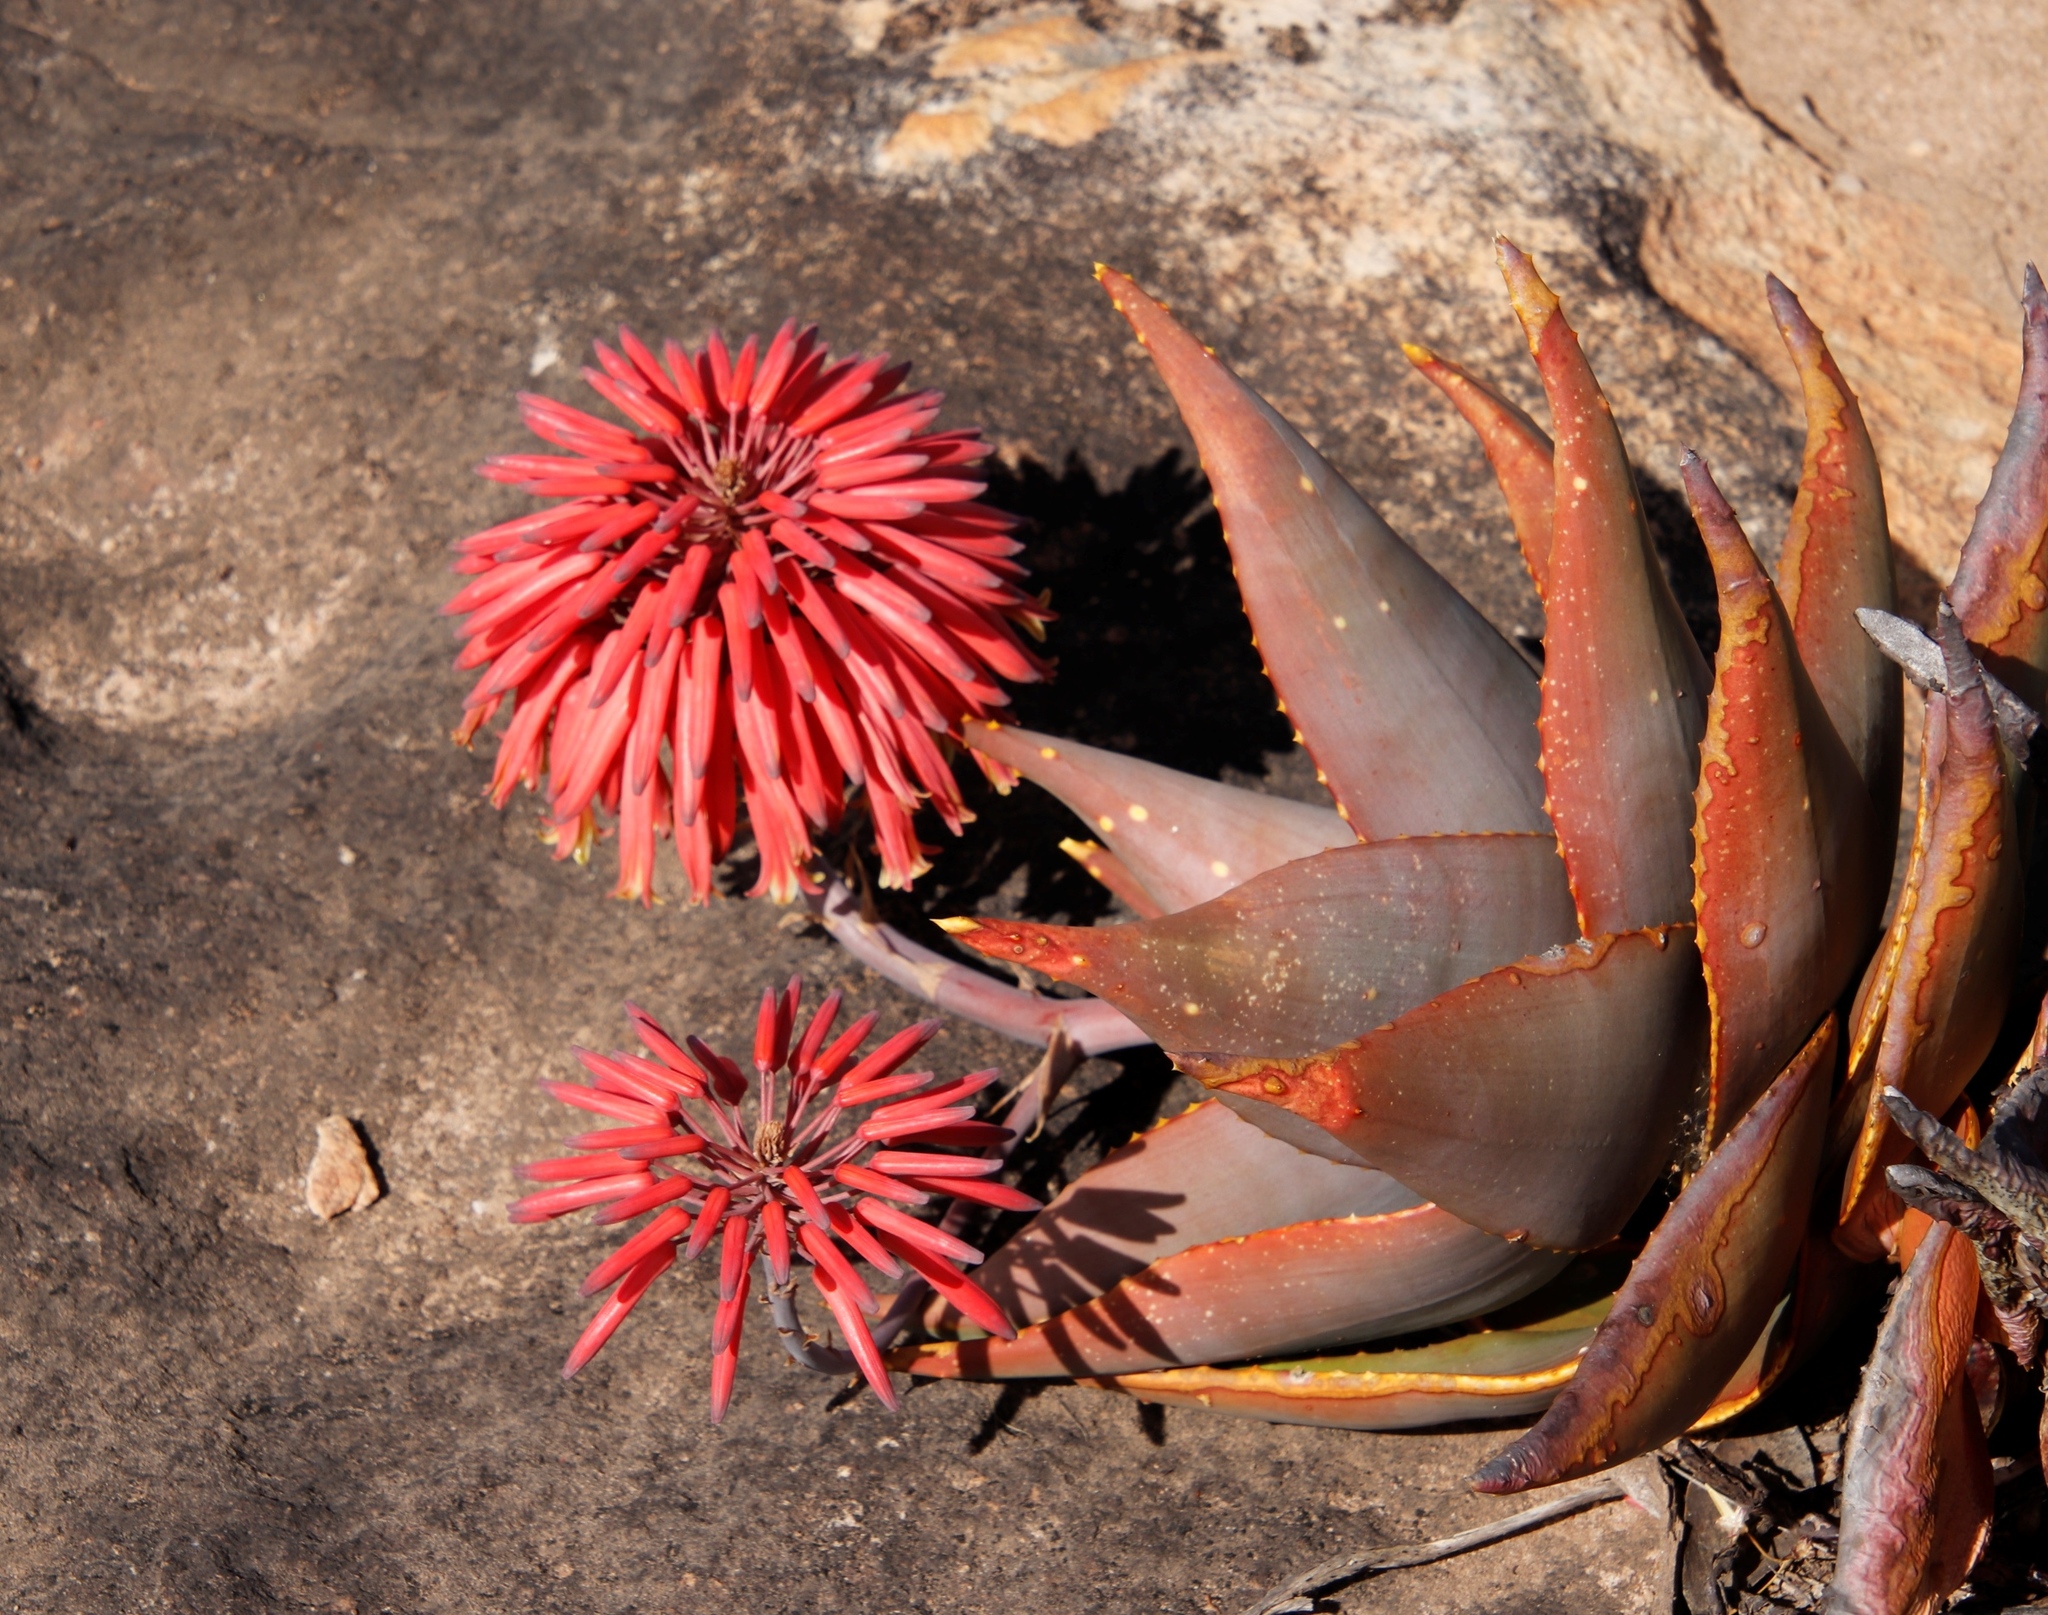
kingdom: Plantae
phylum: Tracheophyta
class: Liliopsida
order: Asparagales
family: Asphodelaceae
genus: Aloe
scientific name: Aloe perfoliata
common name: Mitra aloe
